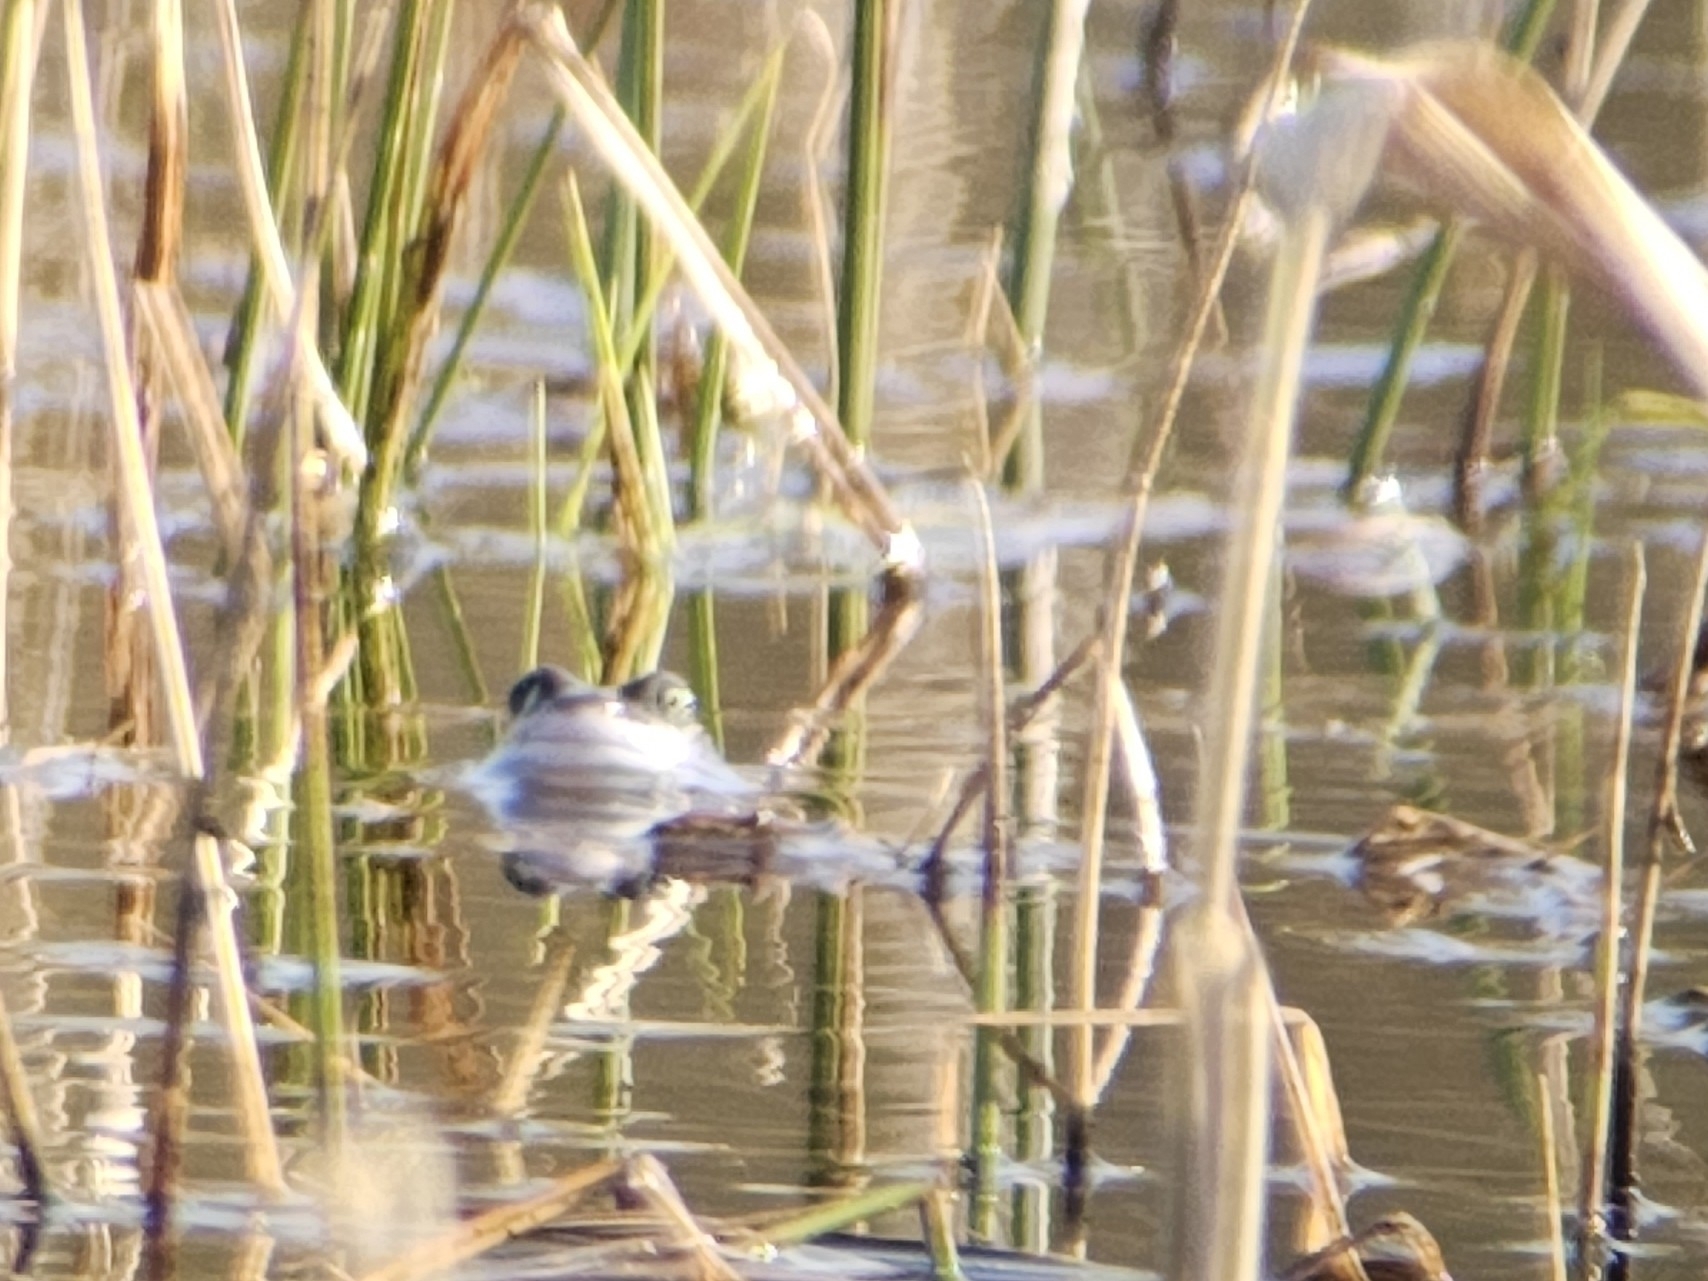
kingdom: Animalia
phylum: Chordata
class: Amphibia
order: Anura
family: Ranidae
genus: Rana
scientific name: Rana arvalis
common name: Moor frog
